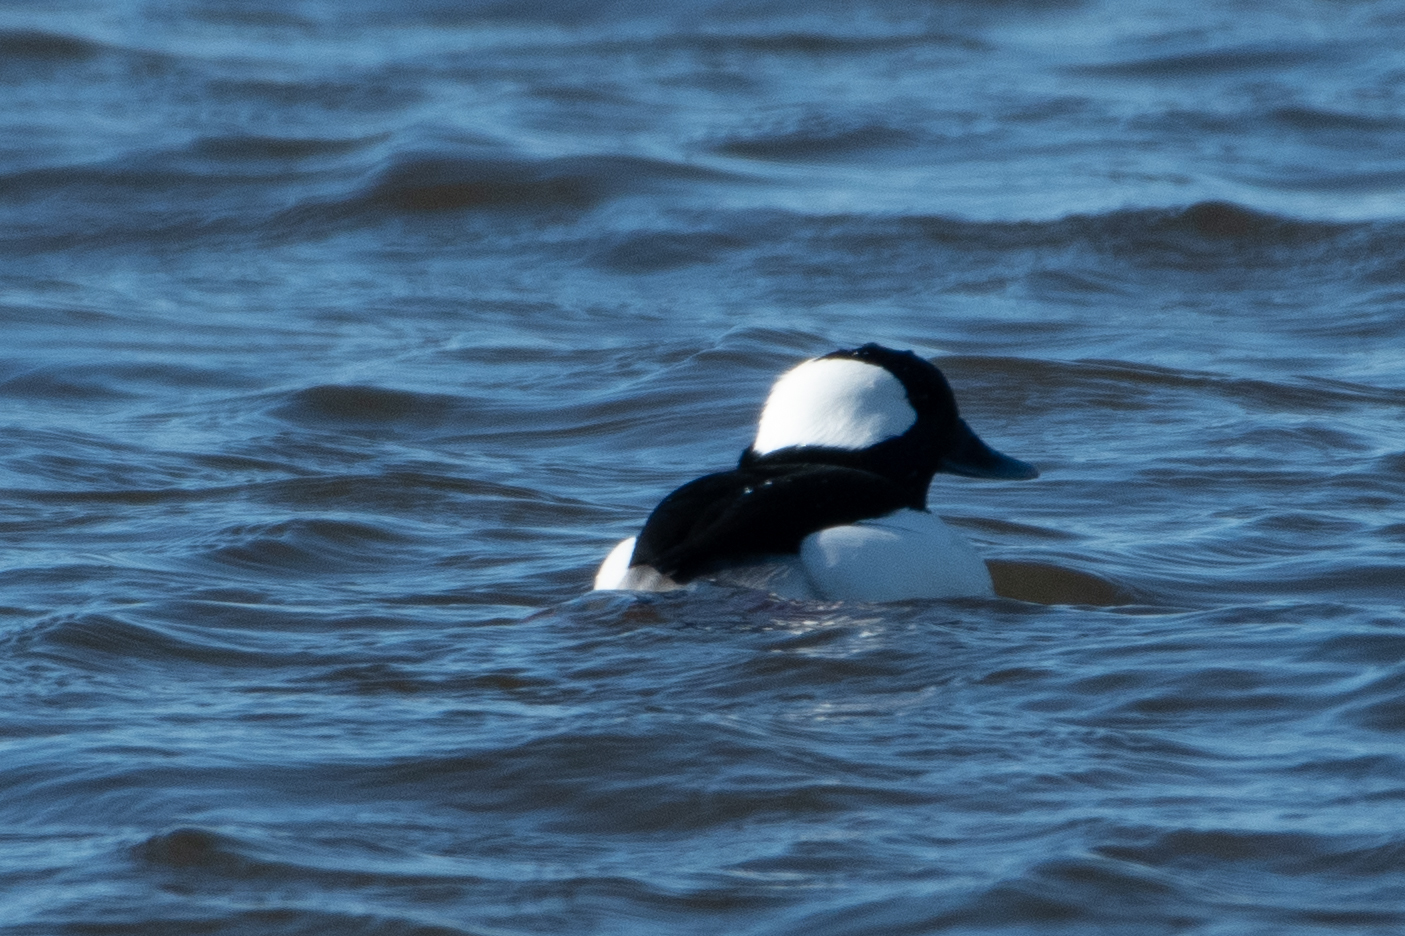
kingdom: Animalia
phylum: Chordata
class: Aves
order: Anseriformes
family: Anatidae
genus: Bucephala
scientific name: Bucephala albeola
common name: Bufflehead
